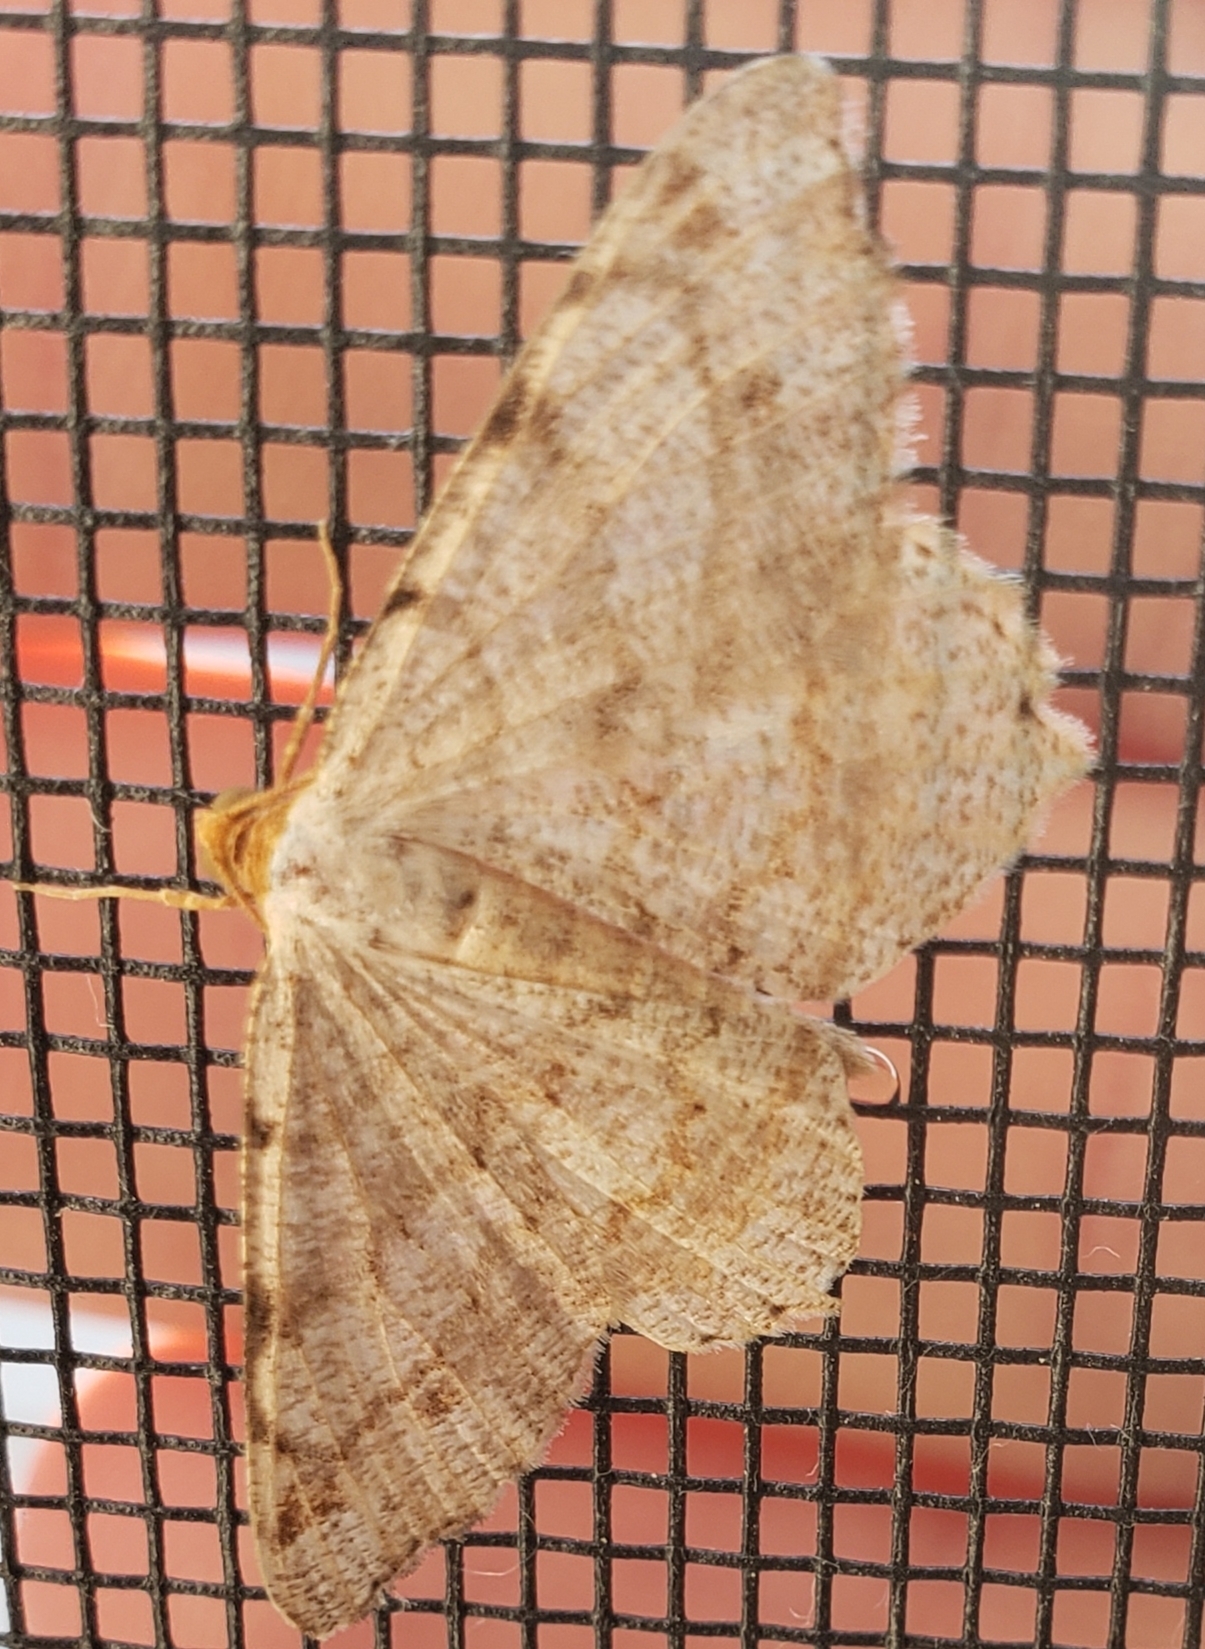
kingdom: Animalia
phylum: Arthropoda
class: Insecta
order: Lepidoptera
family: Geometridae
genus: Macaria
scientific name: Macaria bisignata
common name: Red-headed inchworm
